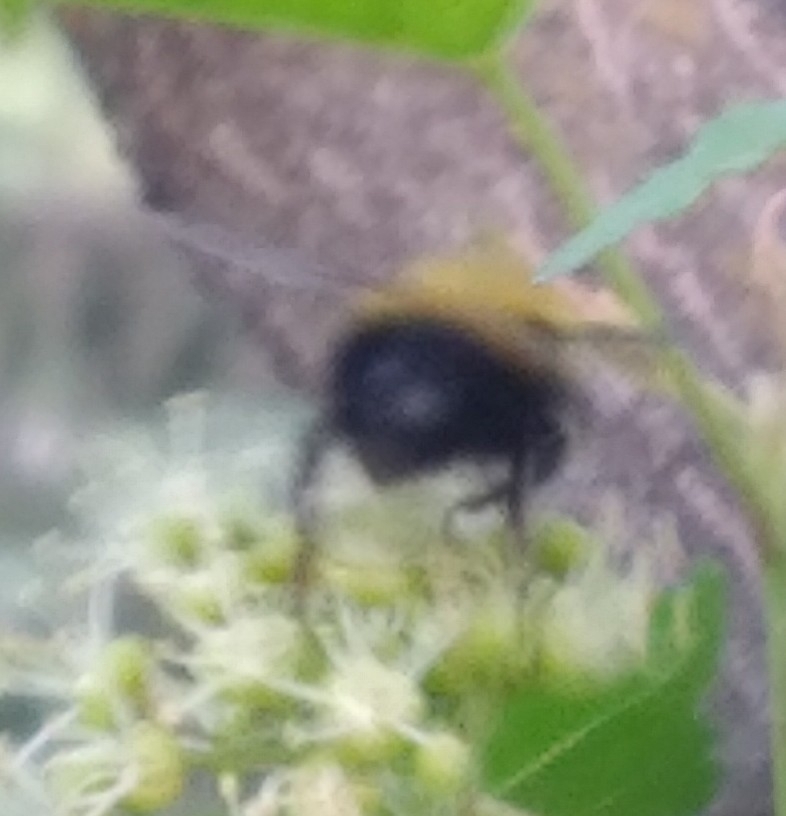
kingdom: Animalia
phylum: Arthropoda
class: Insecta
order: Hymenoptera
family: Apidae
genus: Bombus
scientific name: Bombus perplexus
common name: Confusing bumble bee
